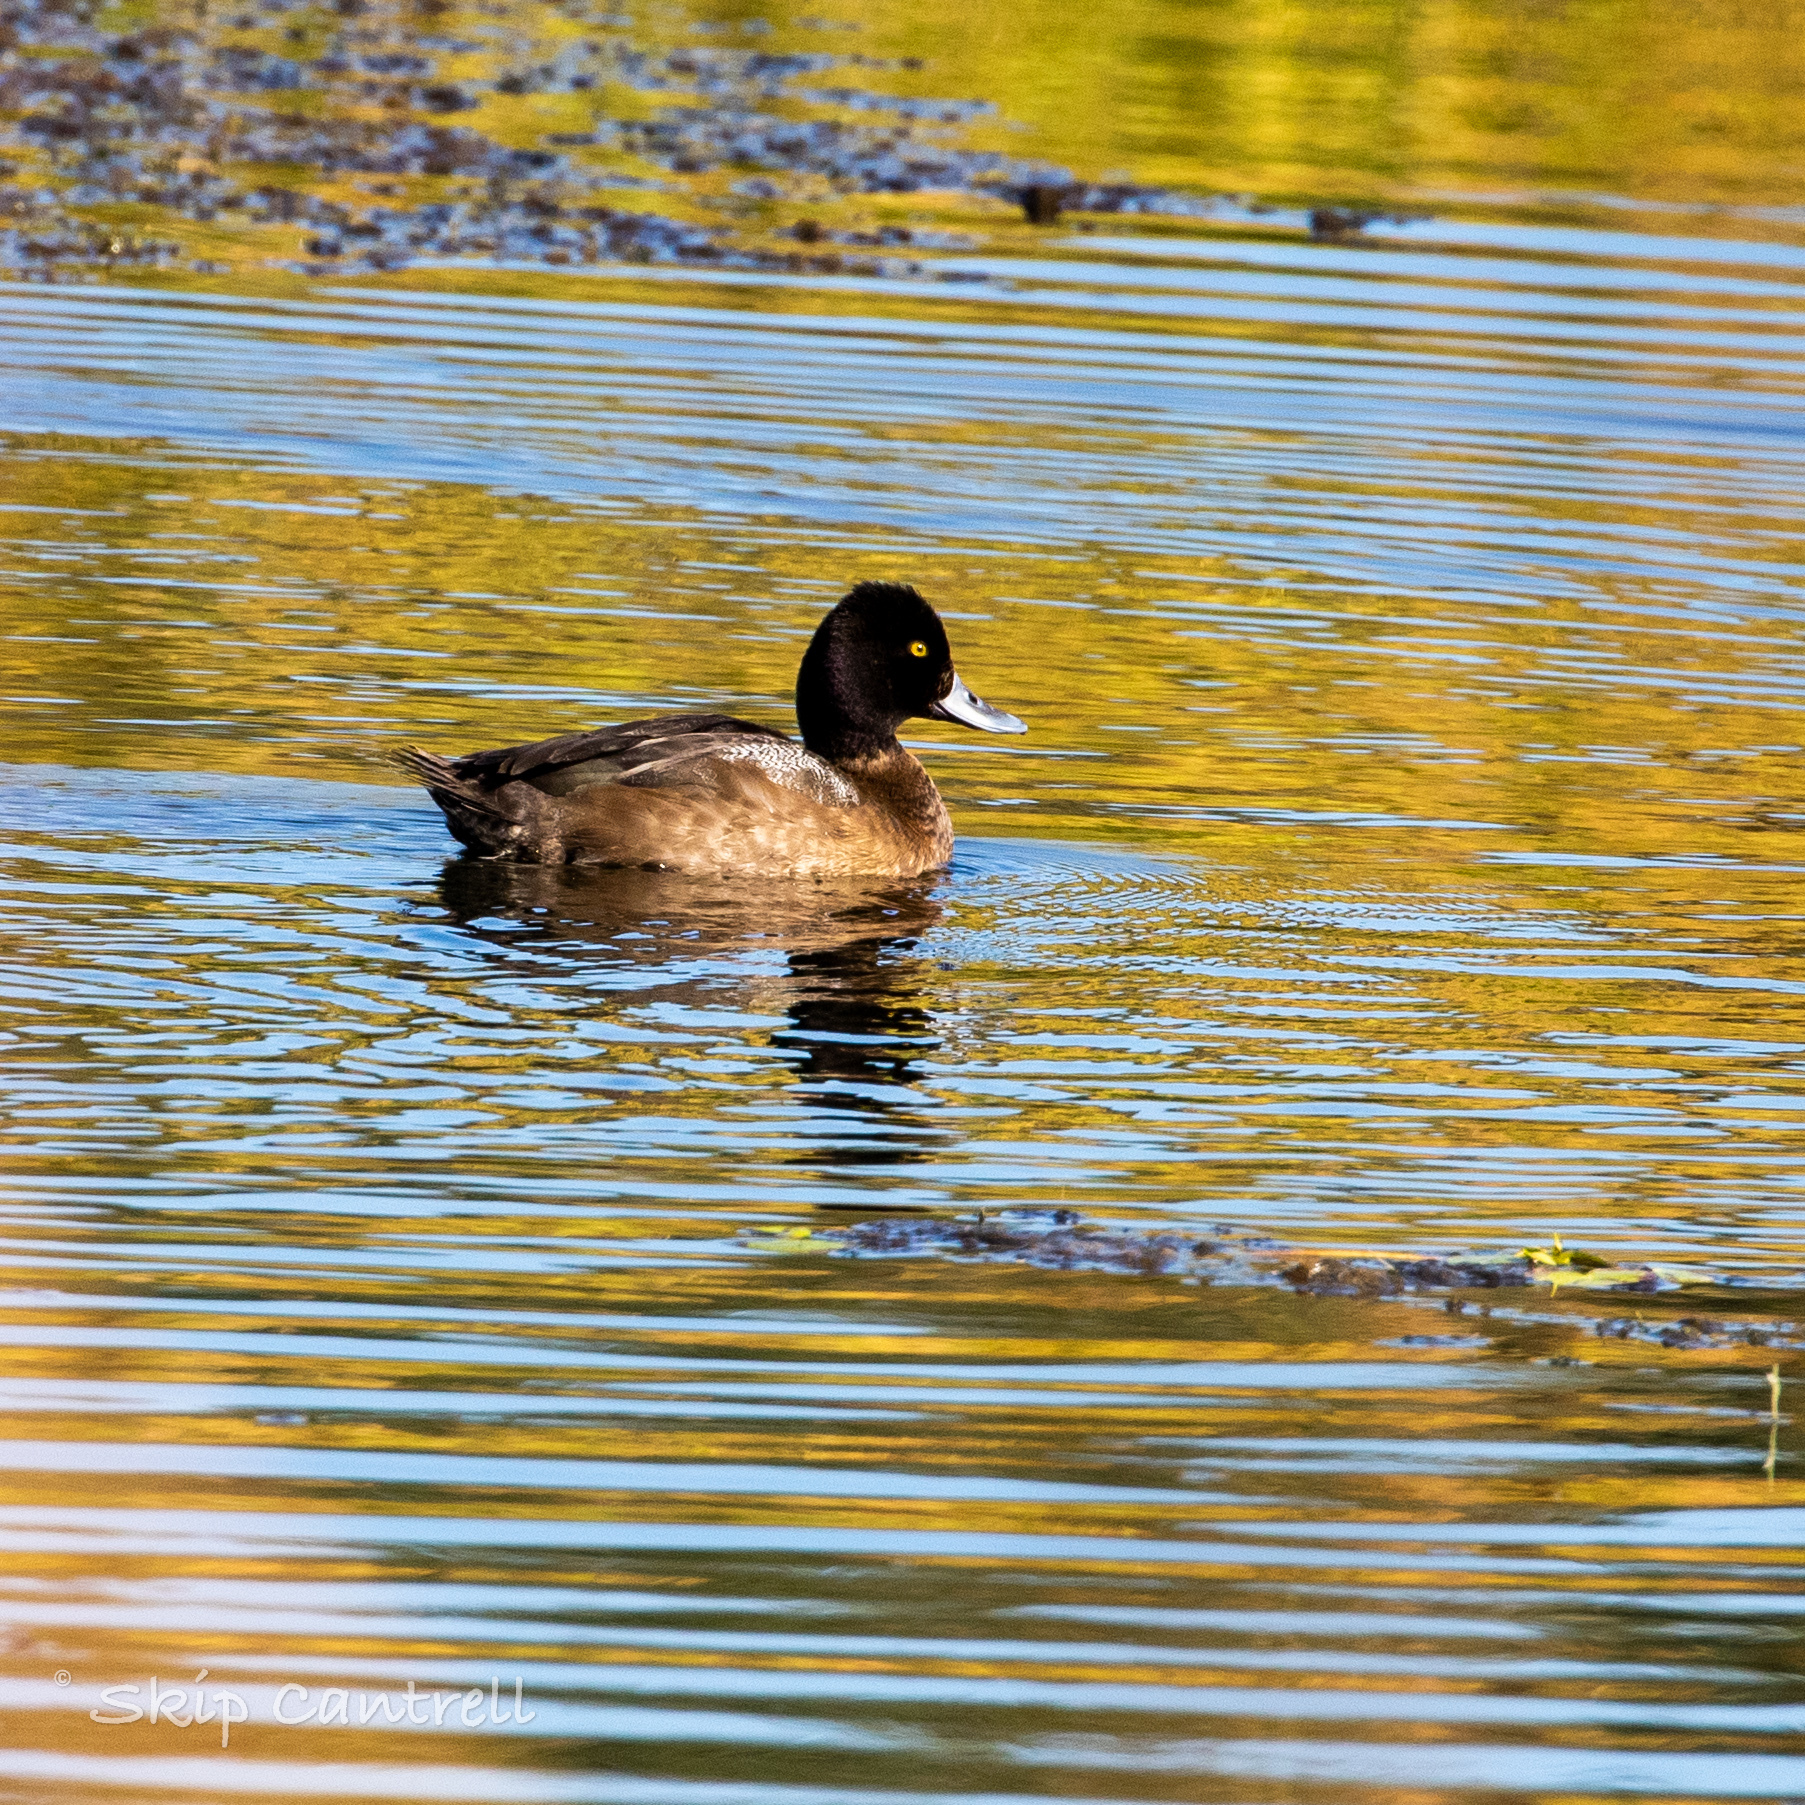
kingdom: Animalia
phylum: Chordata
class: Aves
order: Anseriformes
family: Anatidae
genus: Aythya
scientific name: Aythya affinis
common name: Lesser scaup
